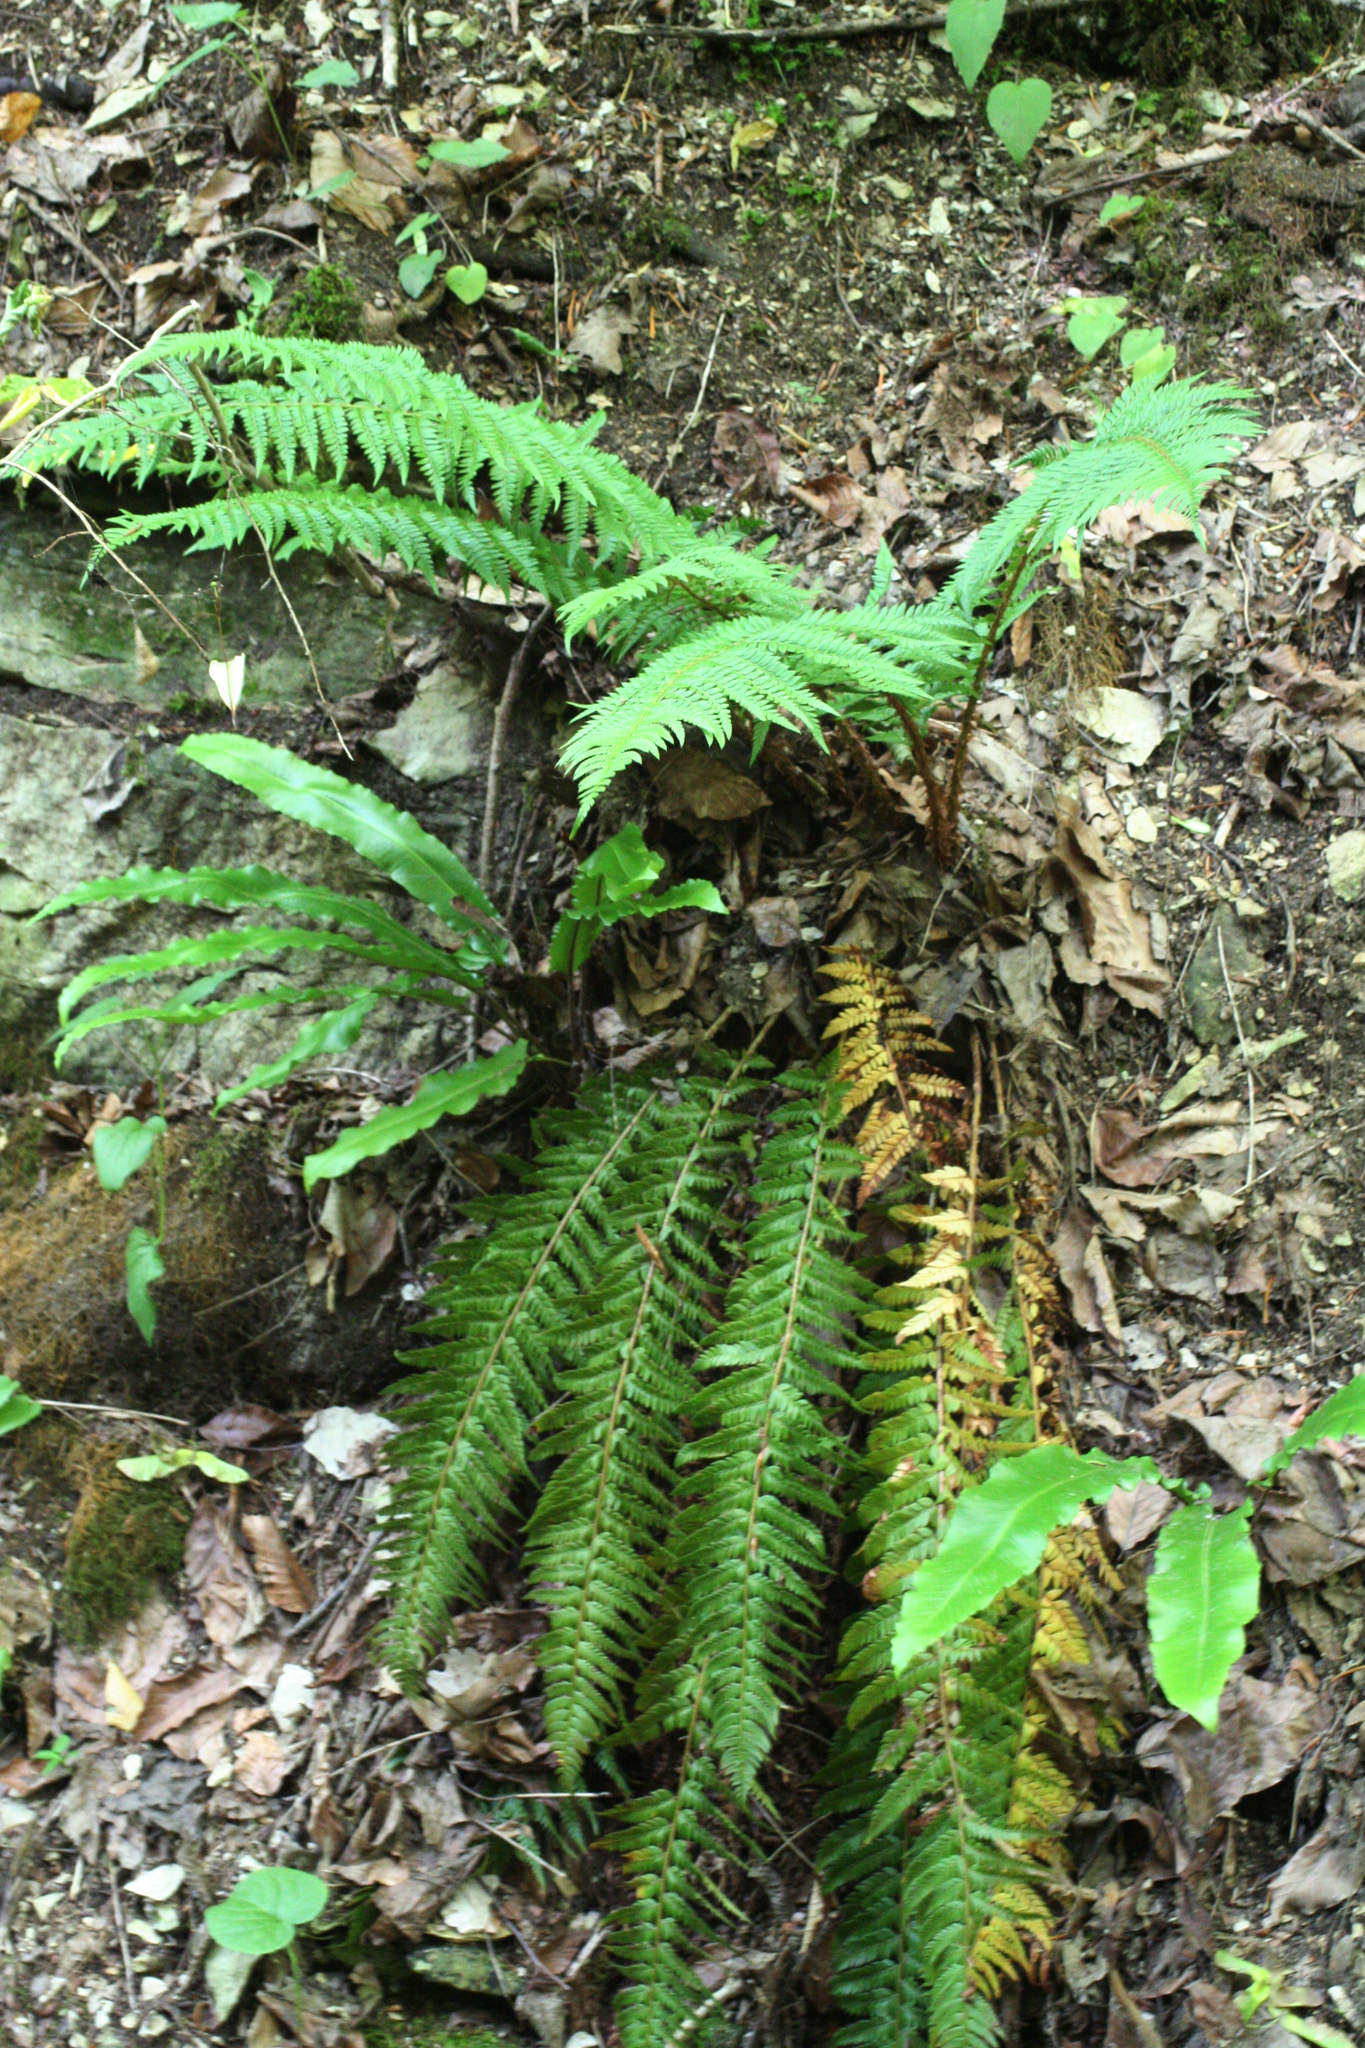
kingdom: Plantae
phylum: Tracheophyta
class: Polypodiopsida
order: Polypodiales
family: Dryopteridaceae
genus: Polystichum
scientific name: Polystichum aculeatum
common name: Hard shield-fern
